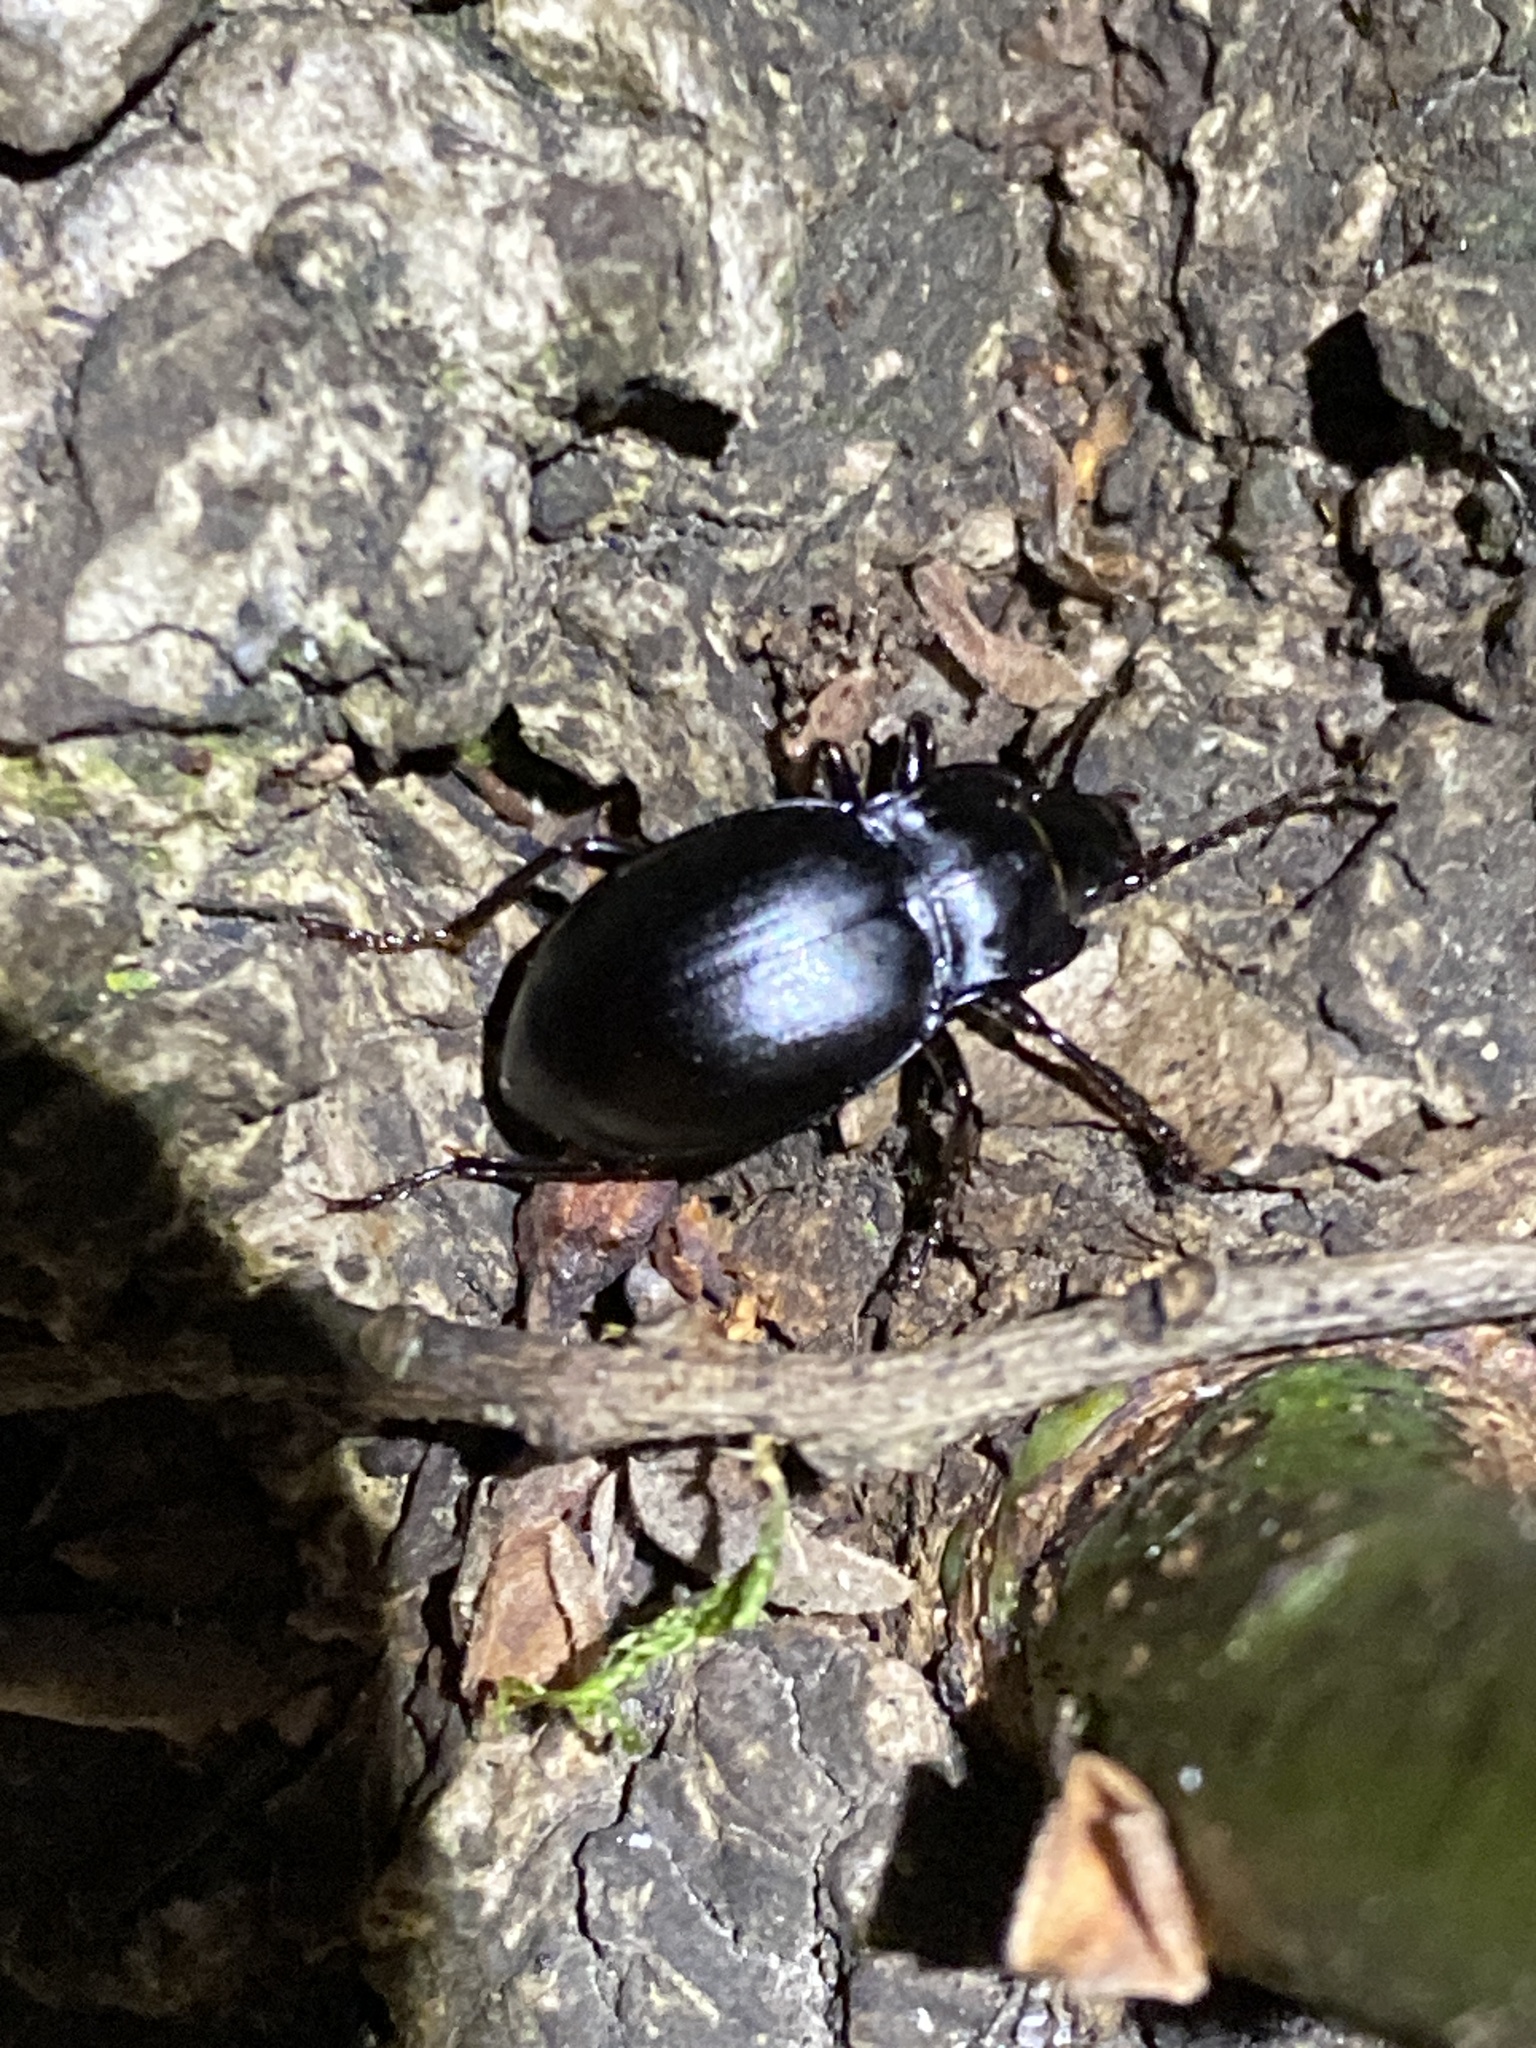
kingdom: Animalia
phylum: Arthropoda
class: Insecta
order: Coleoptera
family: Carabidae
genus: Metrius
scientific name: Metrius contractus
